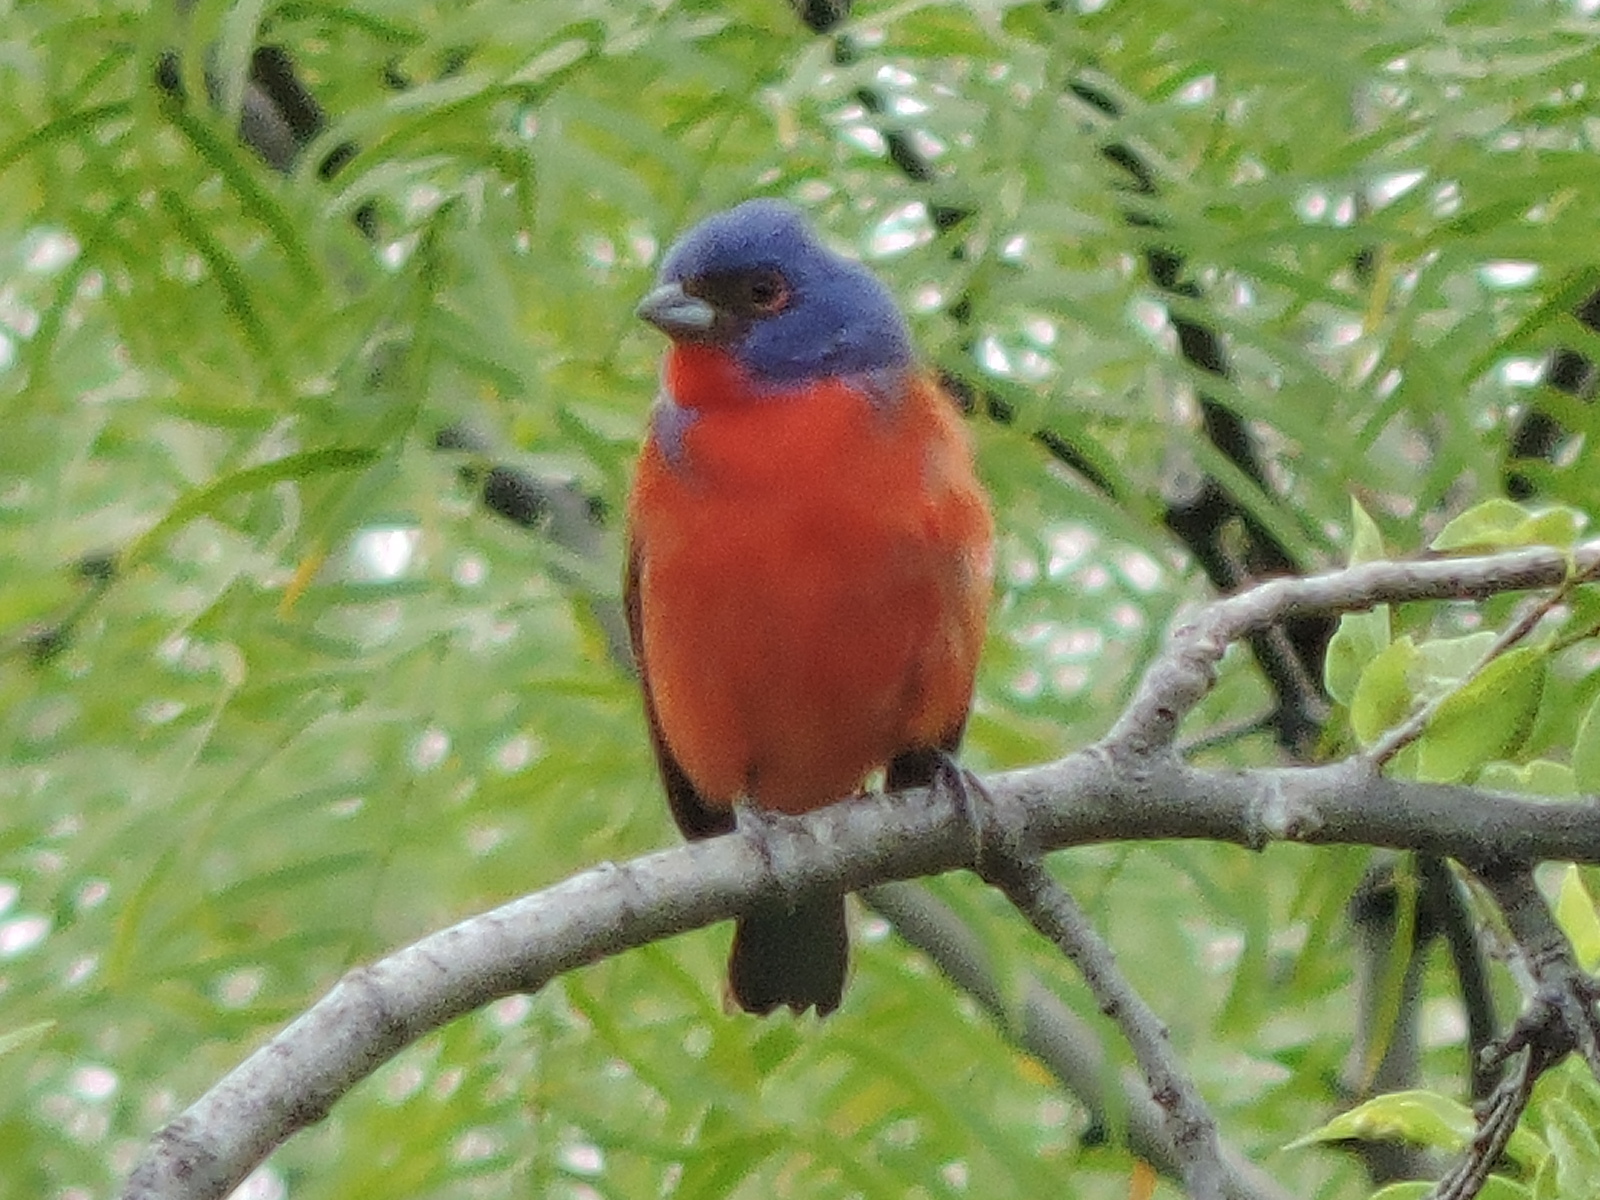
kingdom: Animalia
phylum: Chordata
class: Aves
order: Passeriformes
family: Cardinalidae
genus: Passerina
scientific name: Passerina ciris
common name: Painted bunting
